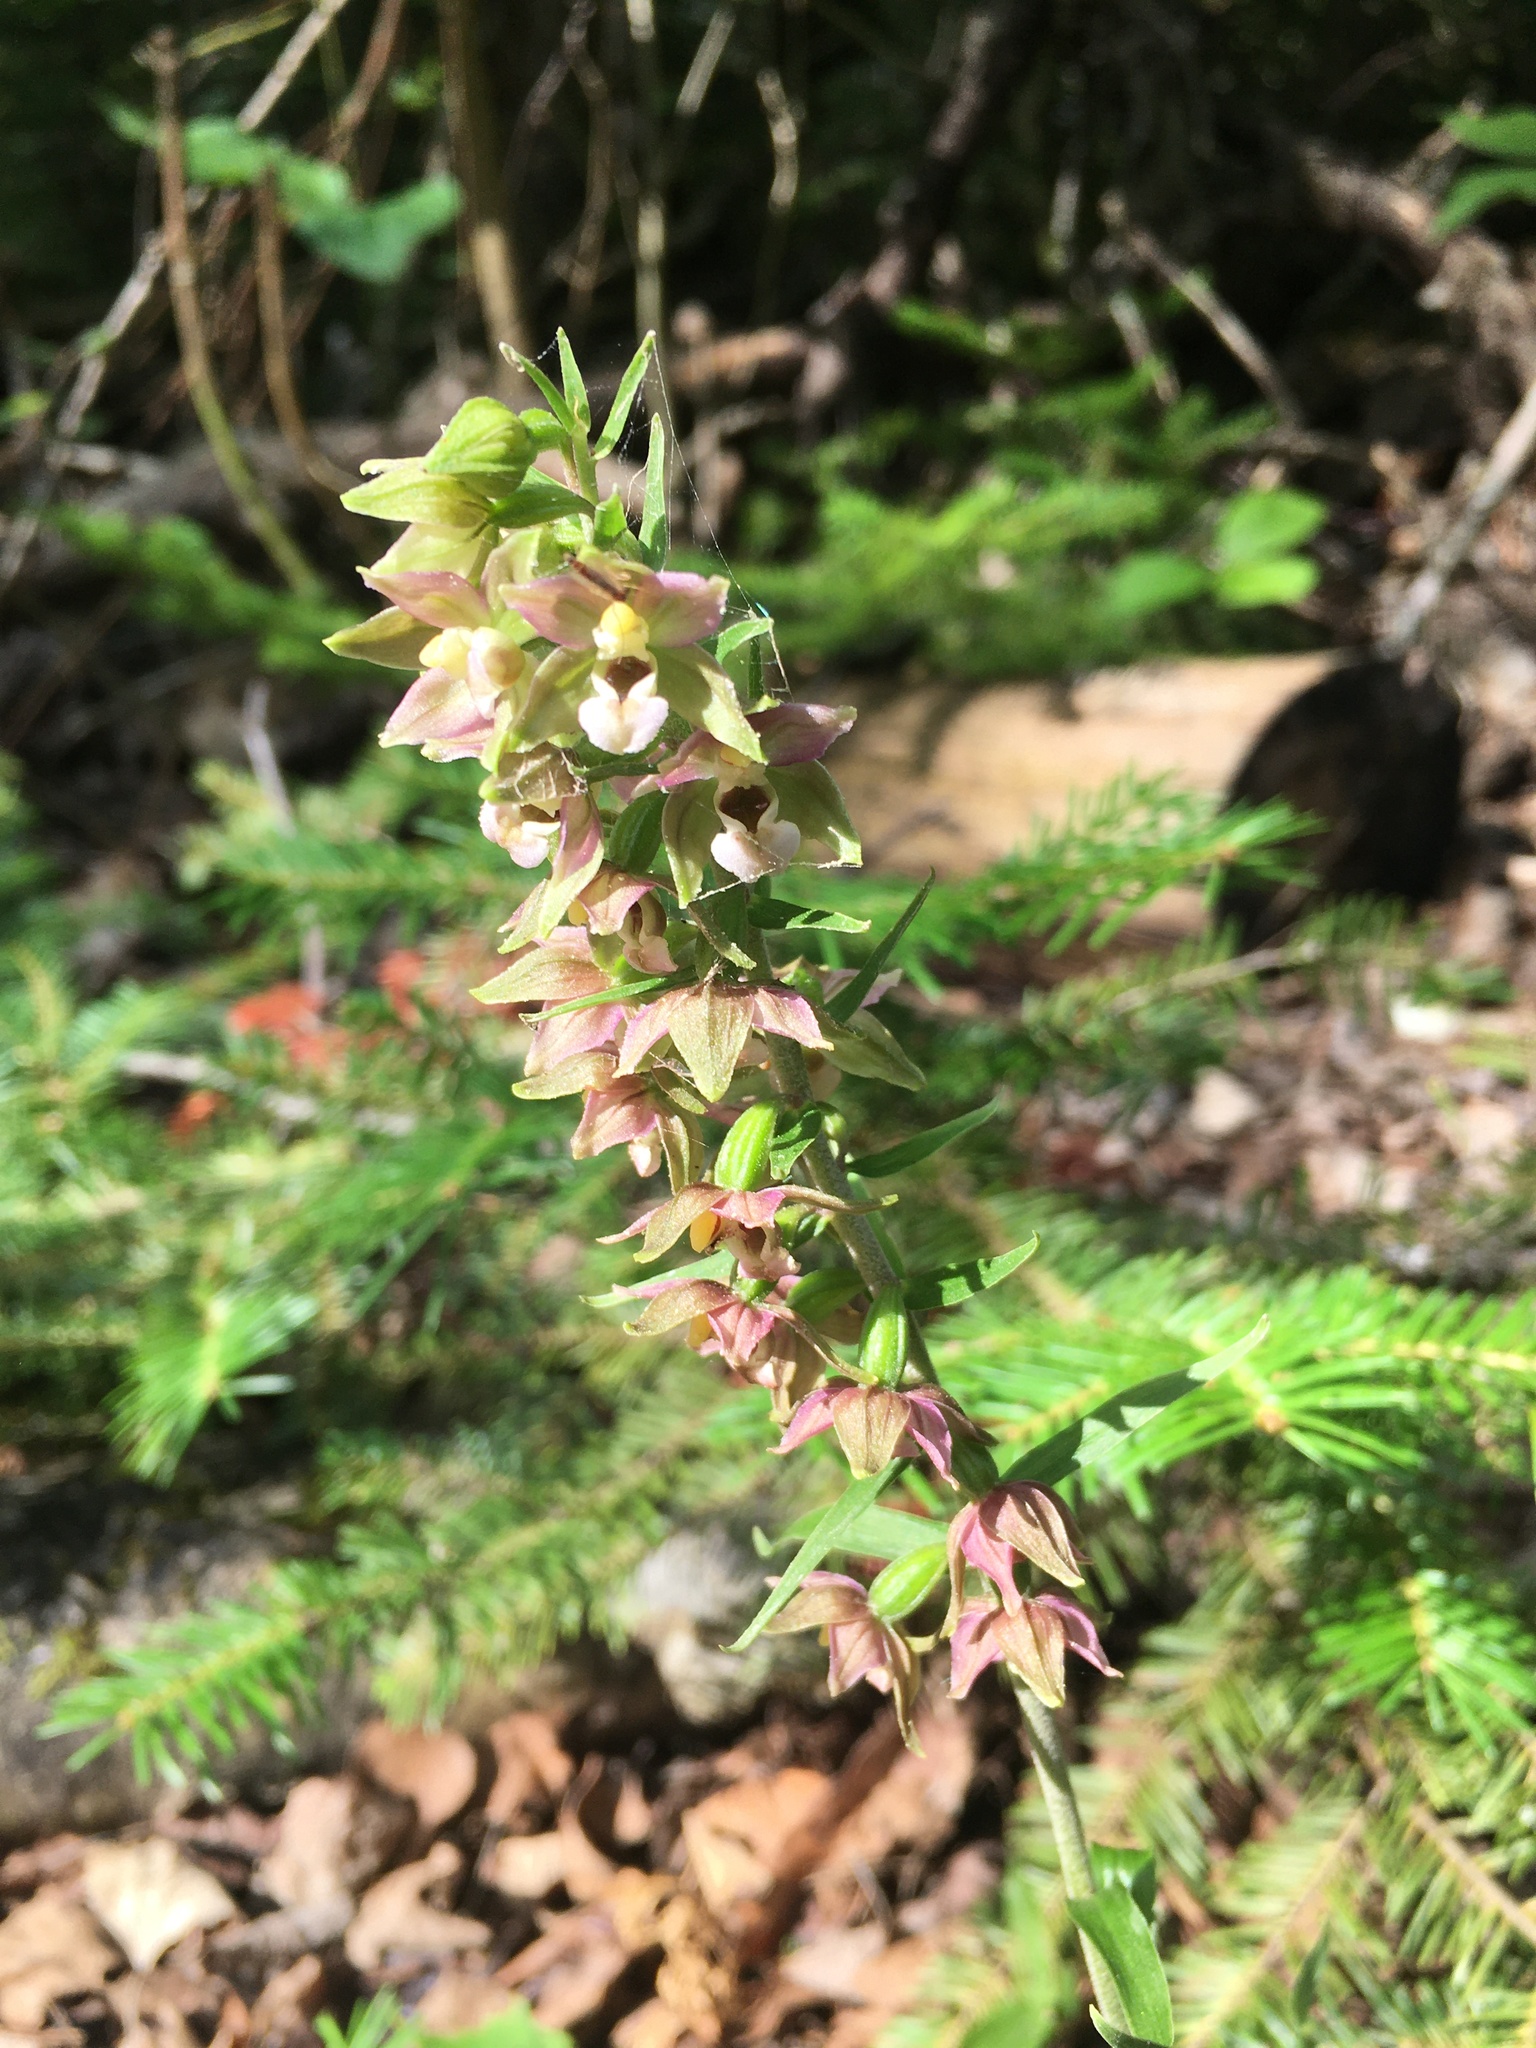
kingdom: Plantae
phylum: Tracheophyta
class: Liliopsida
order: Asparagales
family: Orchidaceae
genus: Epipactis
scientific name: Epipactis helleborine
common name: Broad-leaved helleborine
